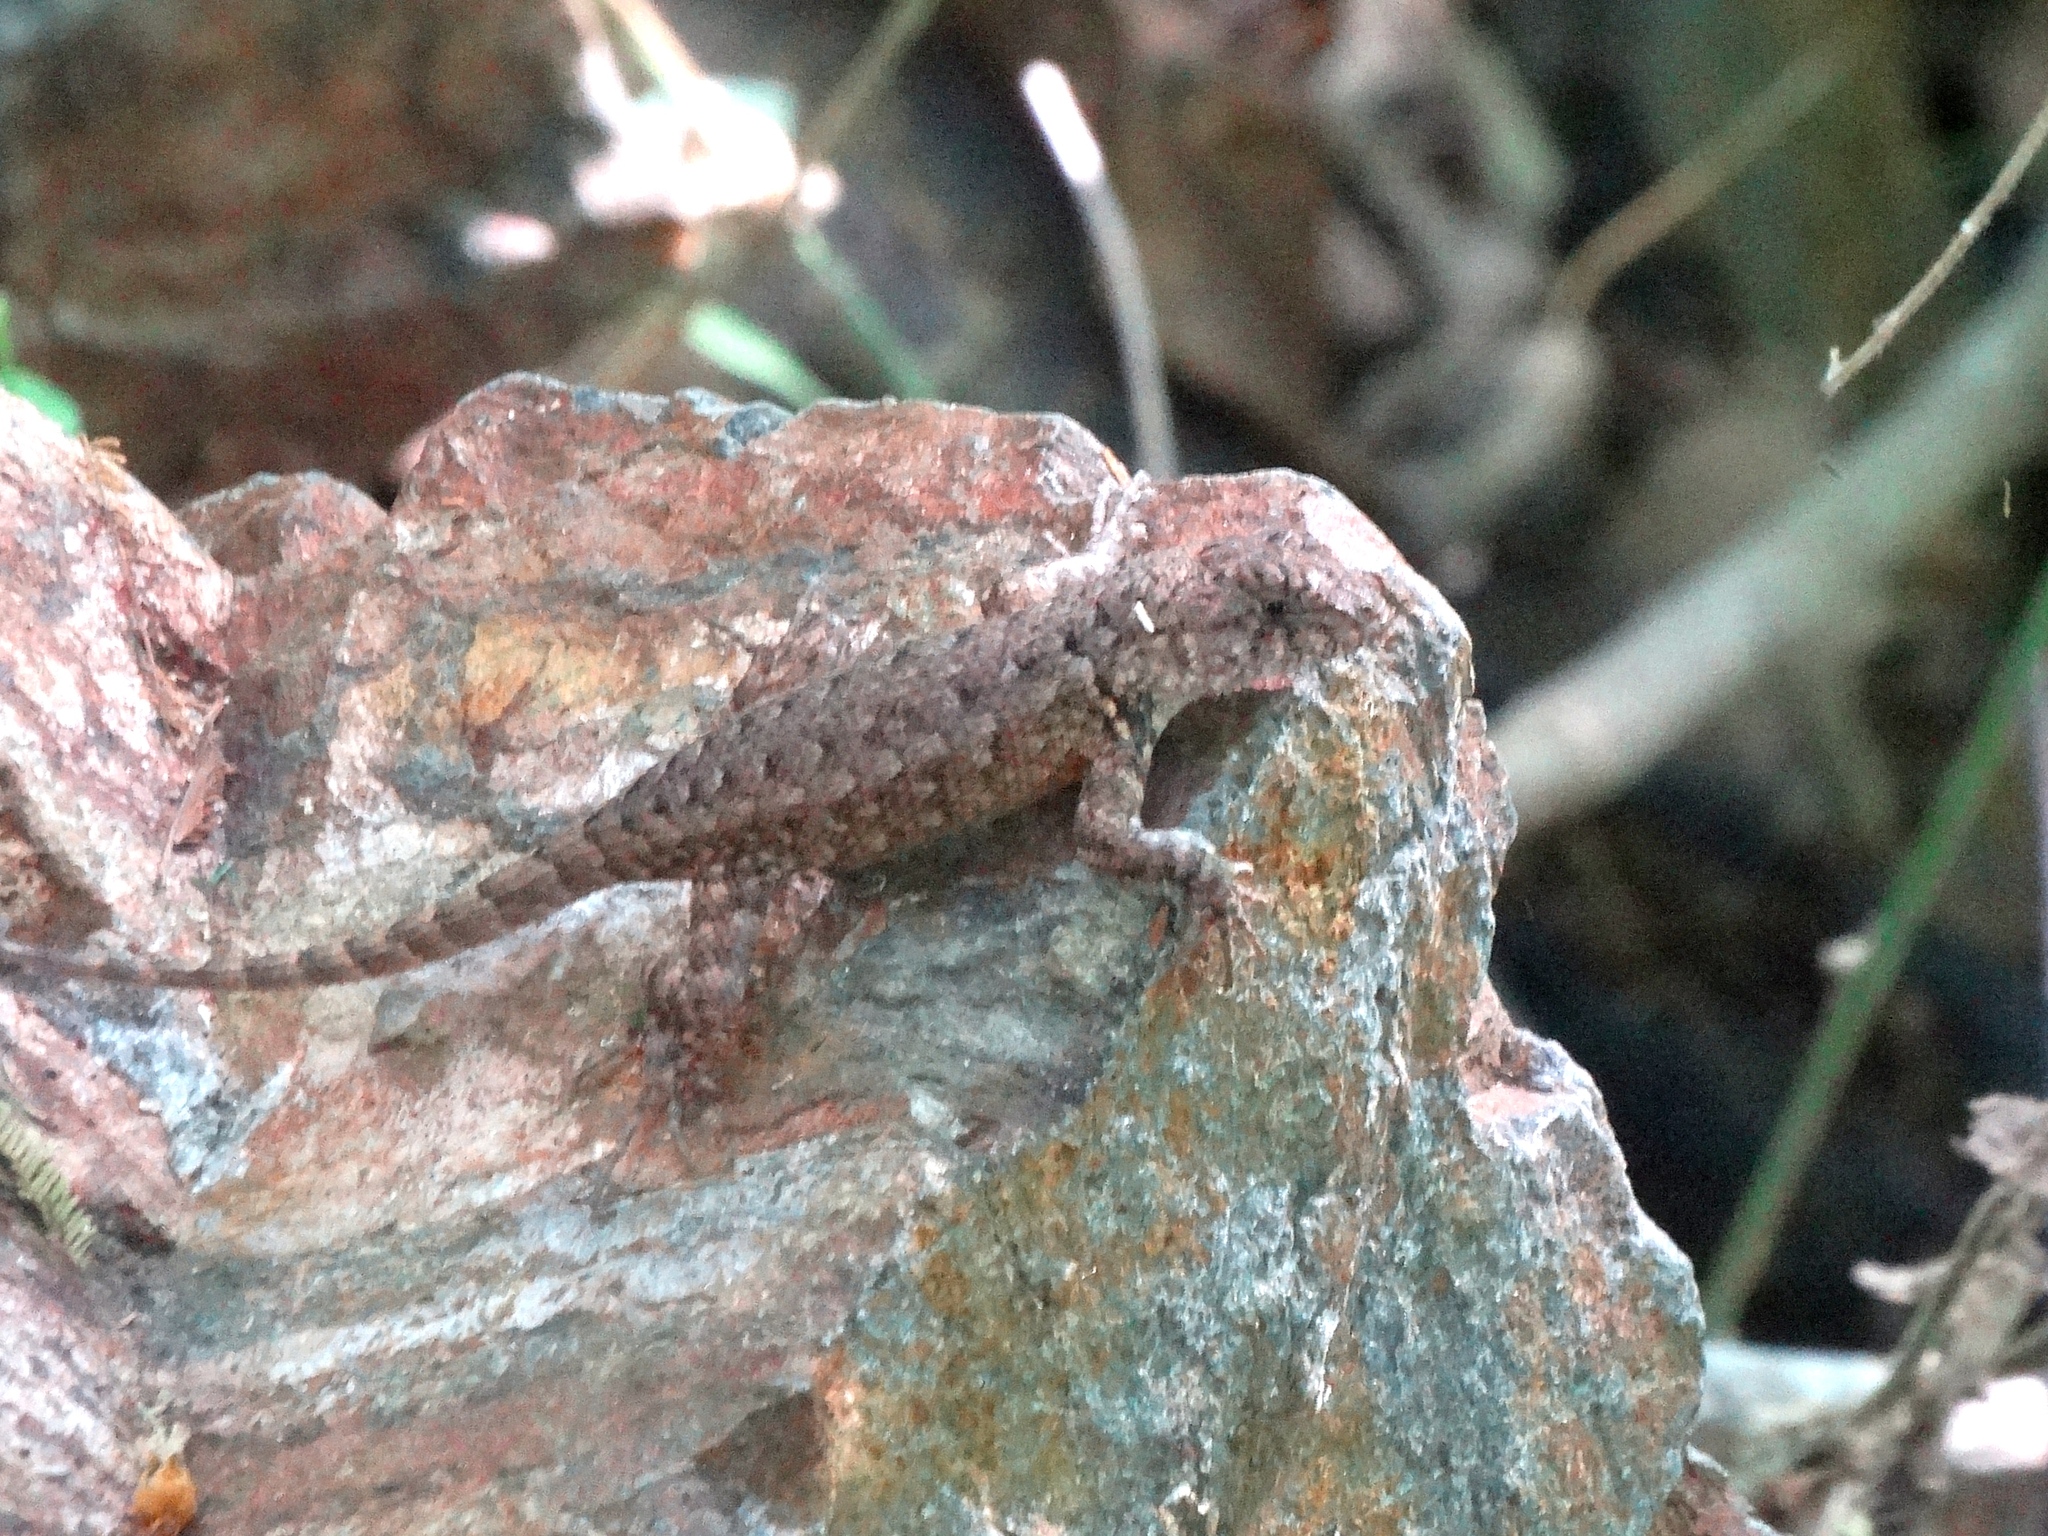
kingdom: Animalia
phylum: Chordata
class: Squamata
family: Phrynosomatidae
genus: Sceloporus
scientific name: Sceloporus nelsoni
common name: Nelson's spiny lizard
